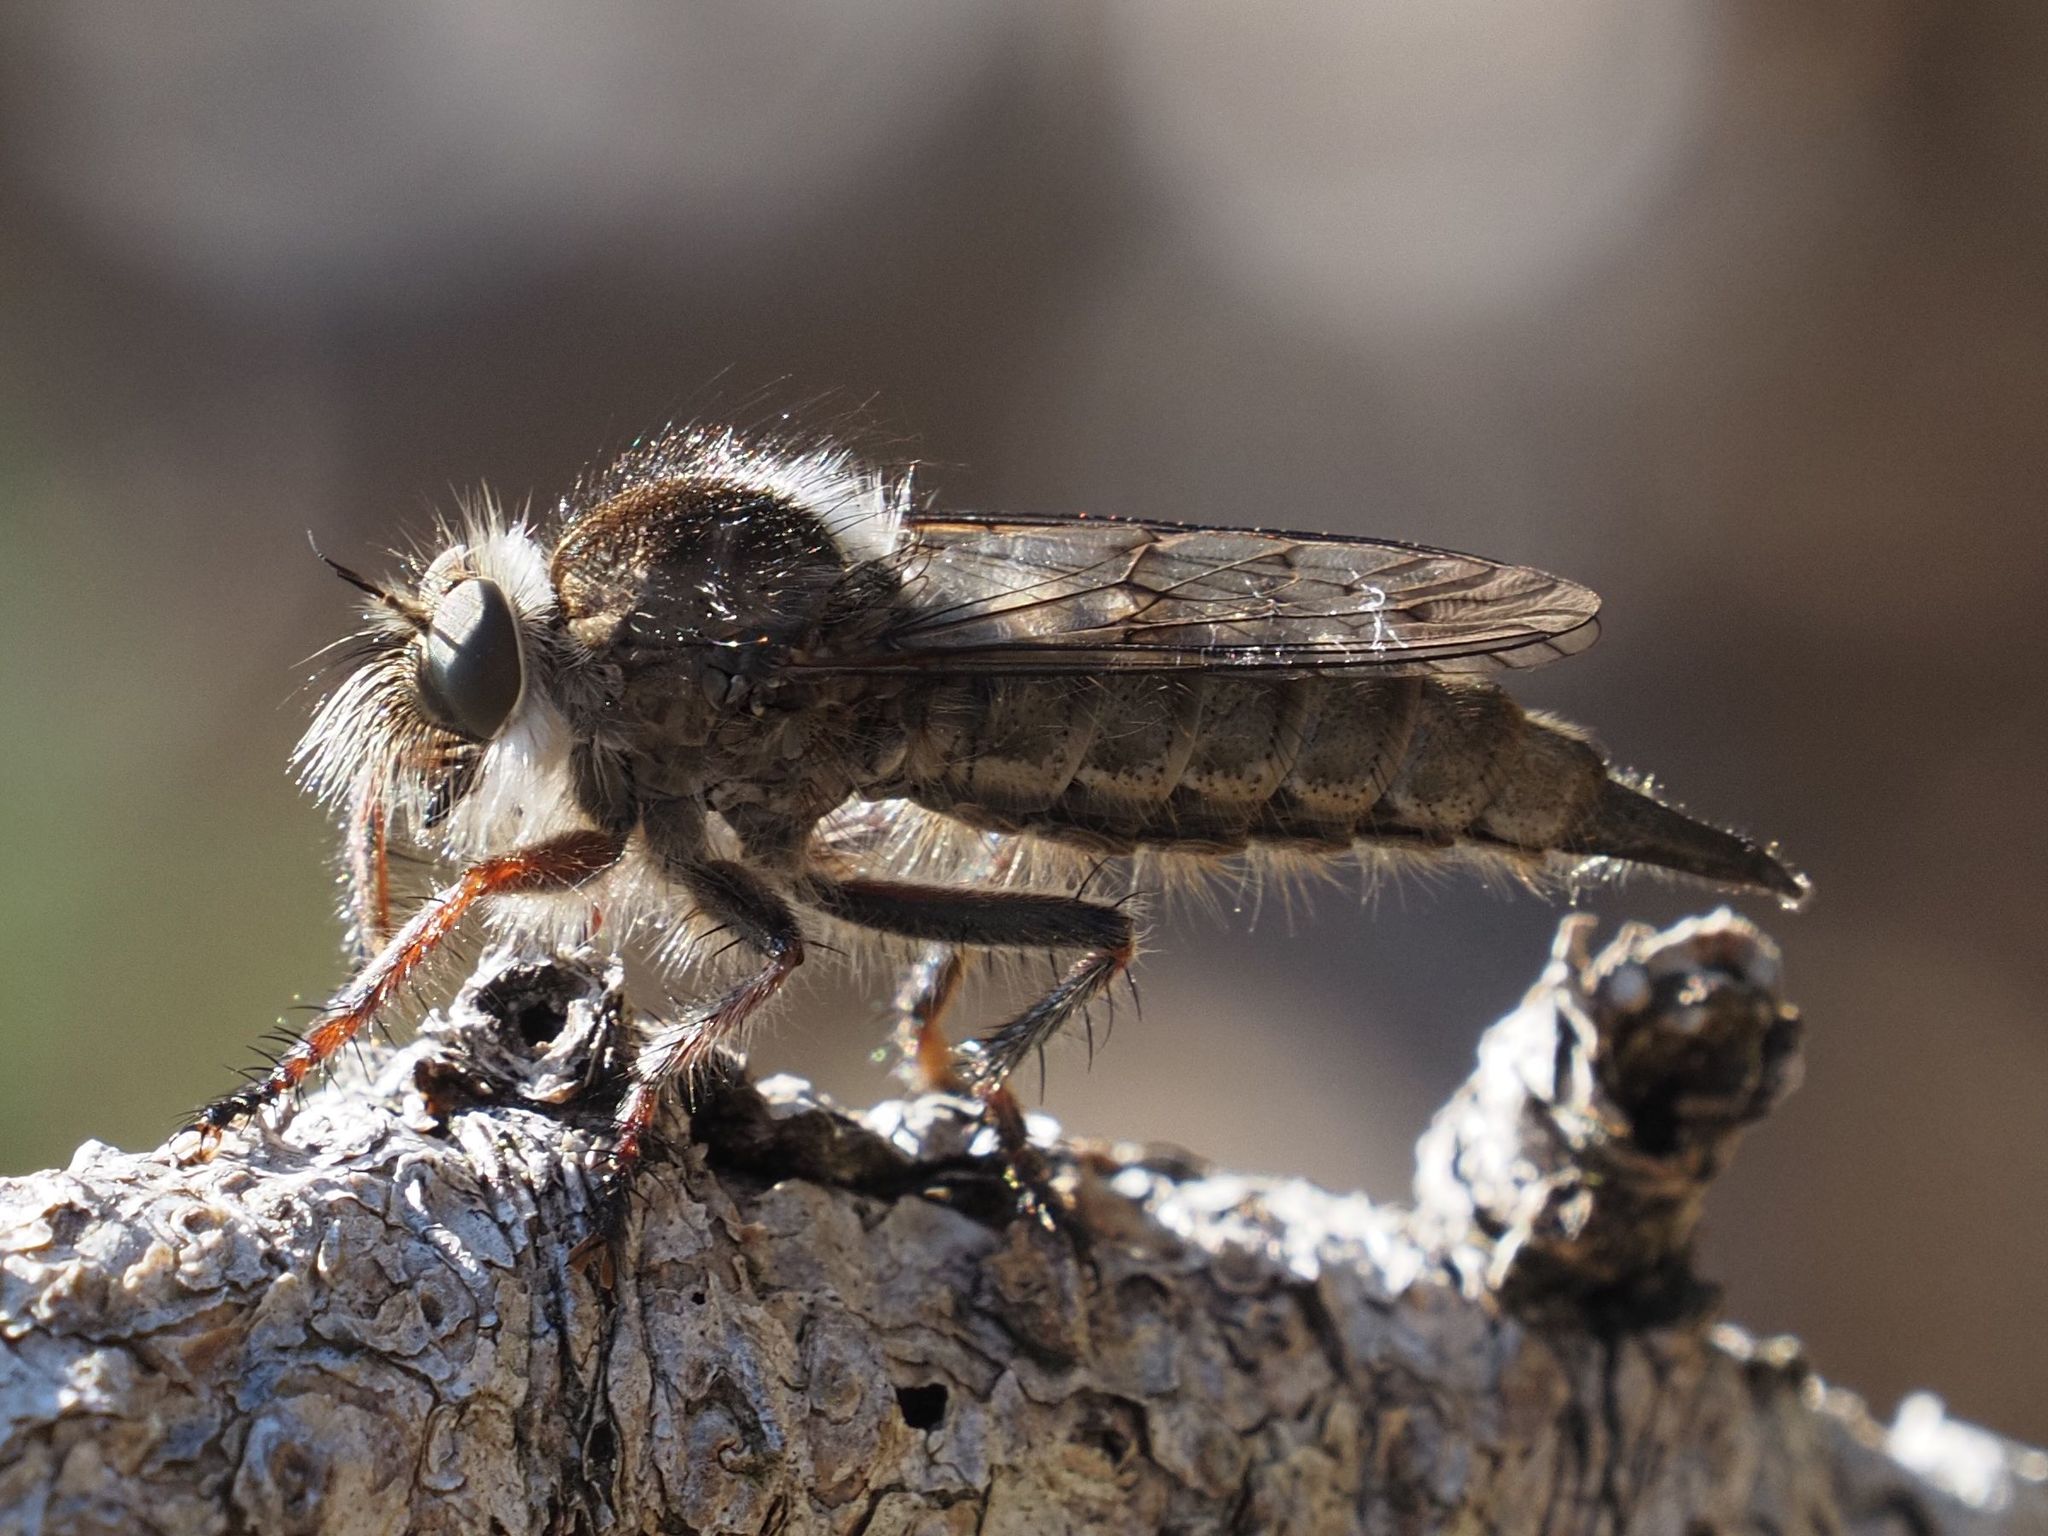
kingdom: Animalia
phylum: Arthropoda
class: Insecta
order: Diptera
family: Asilidae
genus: Erax
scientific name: Erax barbatus
